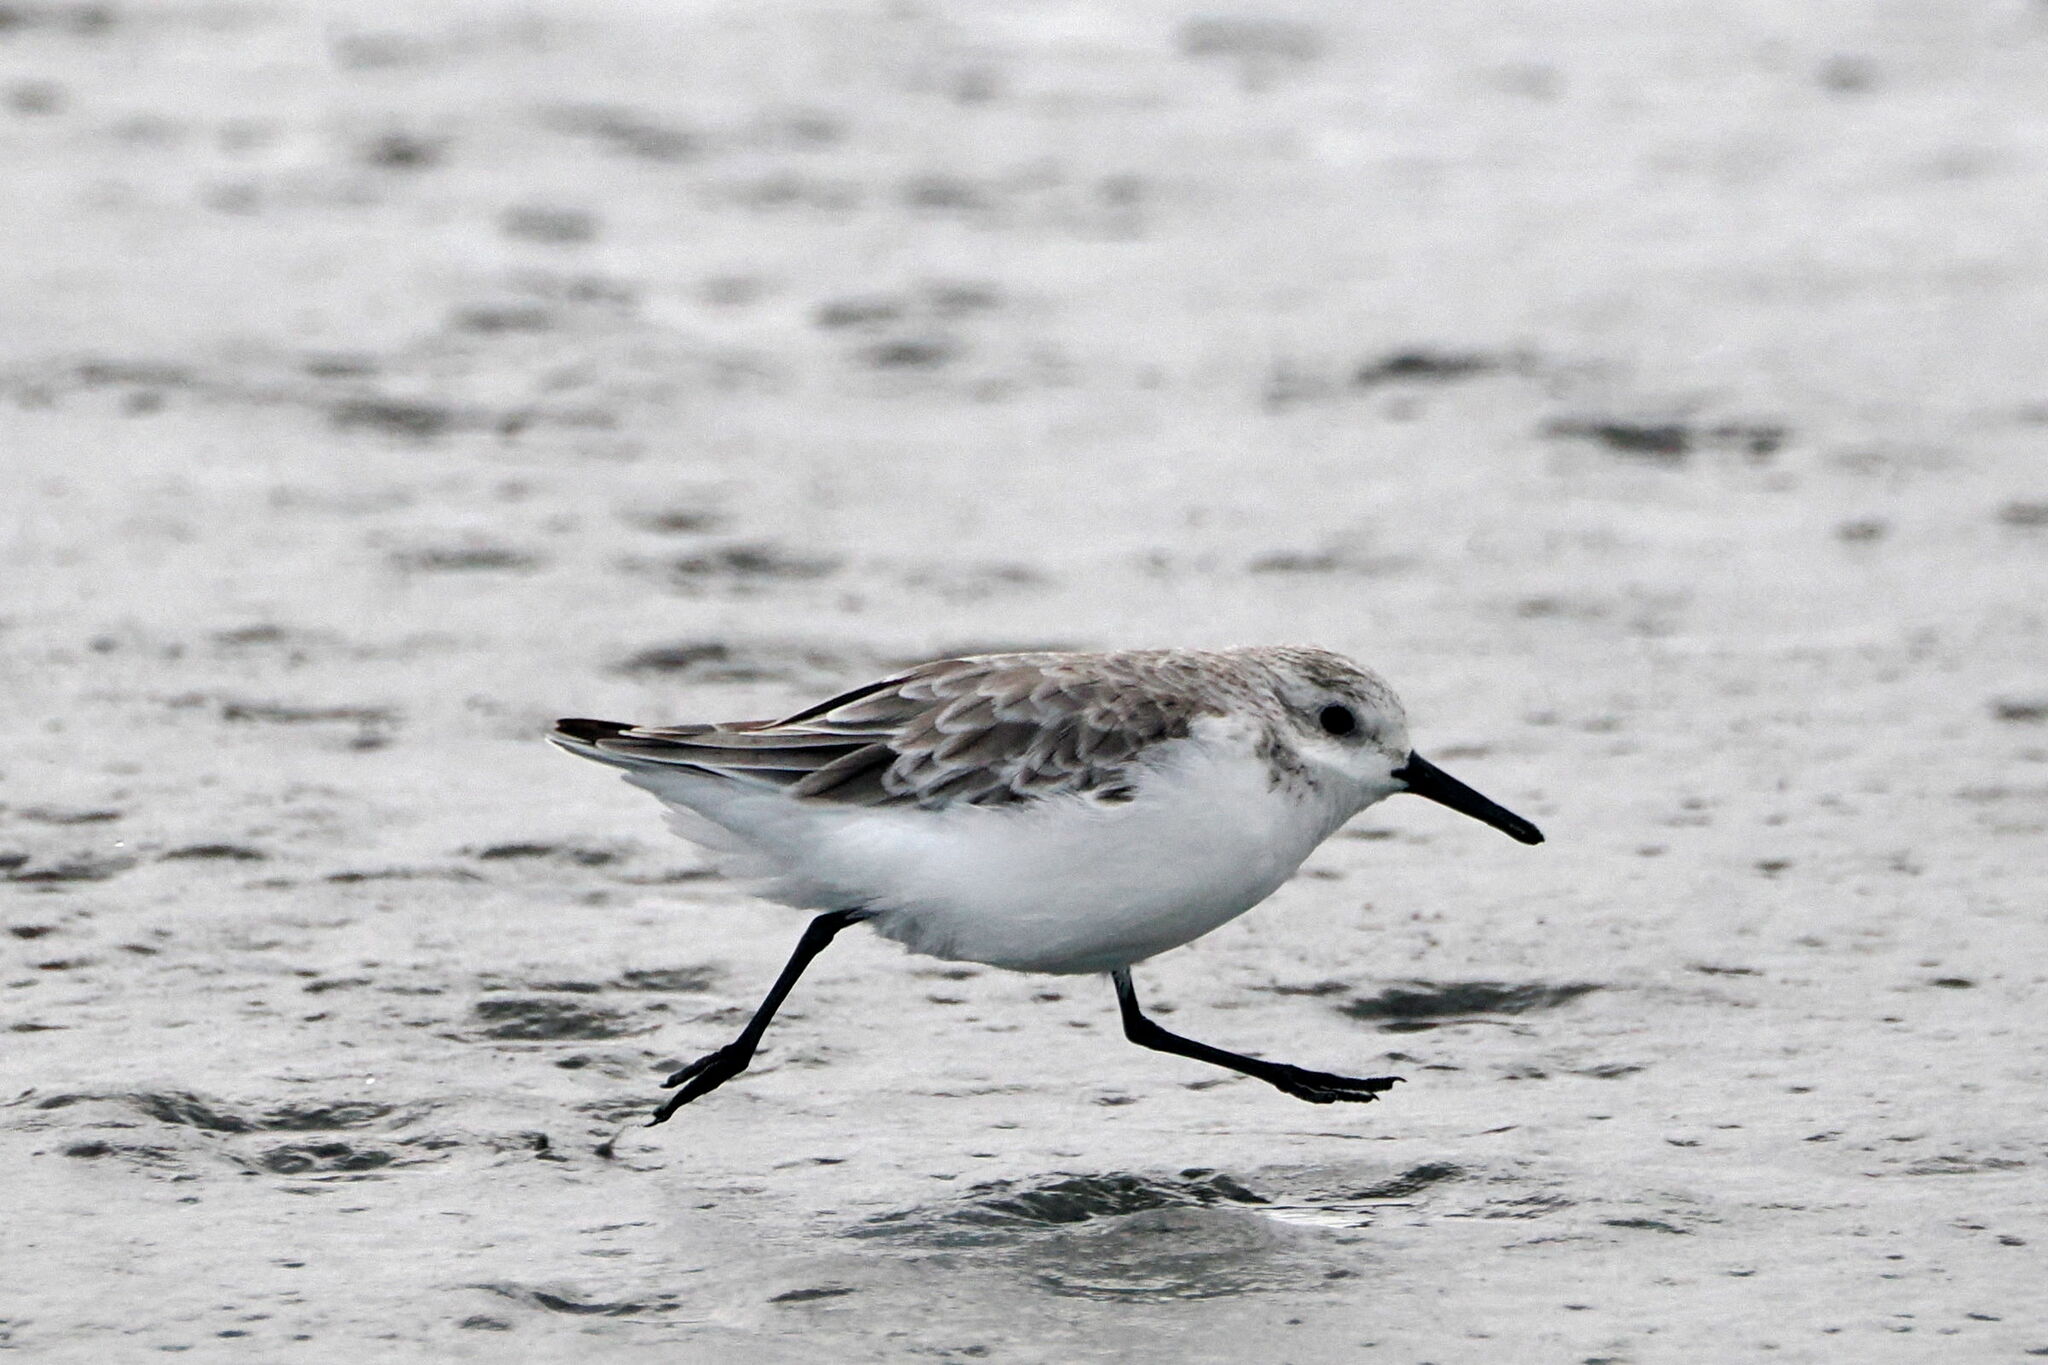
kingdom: Animalia
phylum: Chordata
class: Aves
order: Charadriiformes
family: Scolopacidae
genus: Calidris
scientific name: Calidris alba
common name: Sanderling
